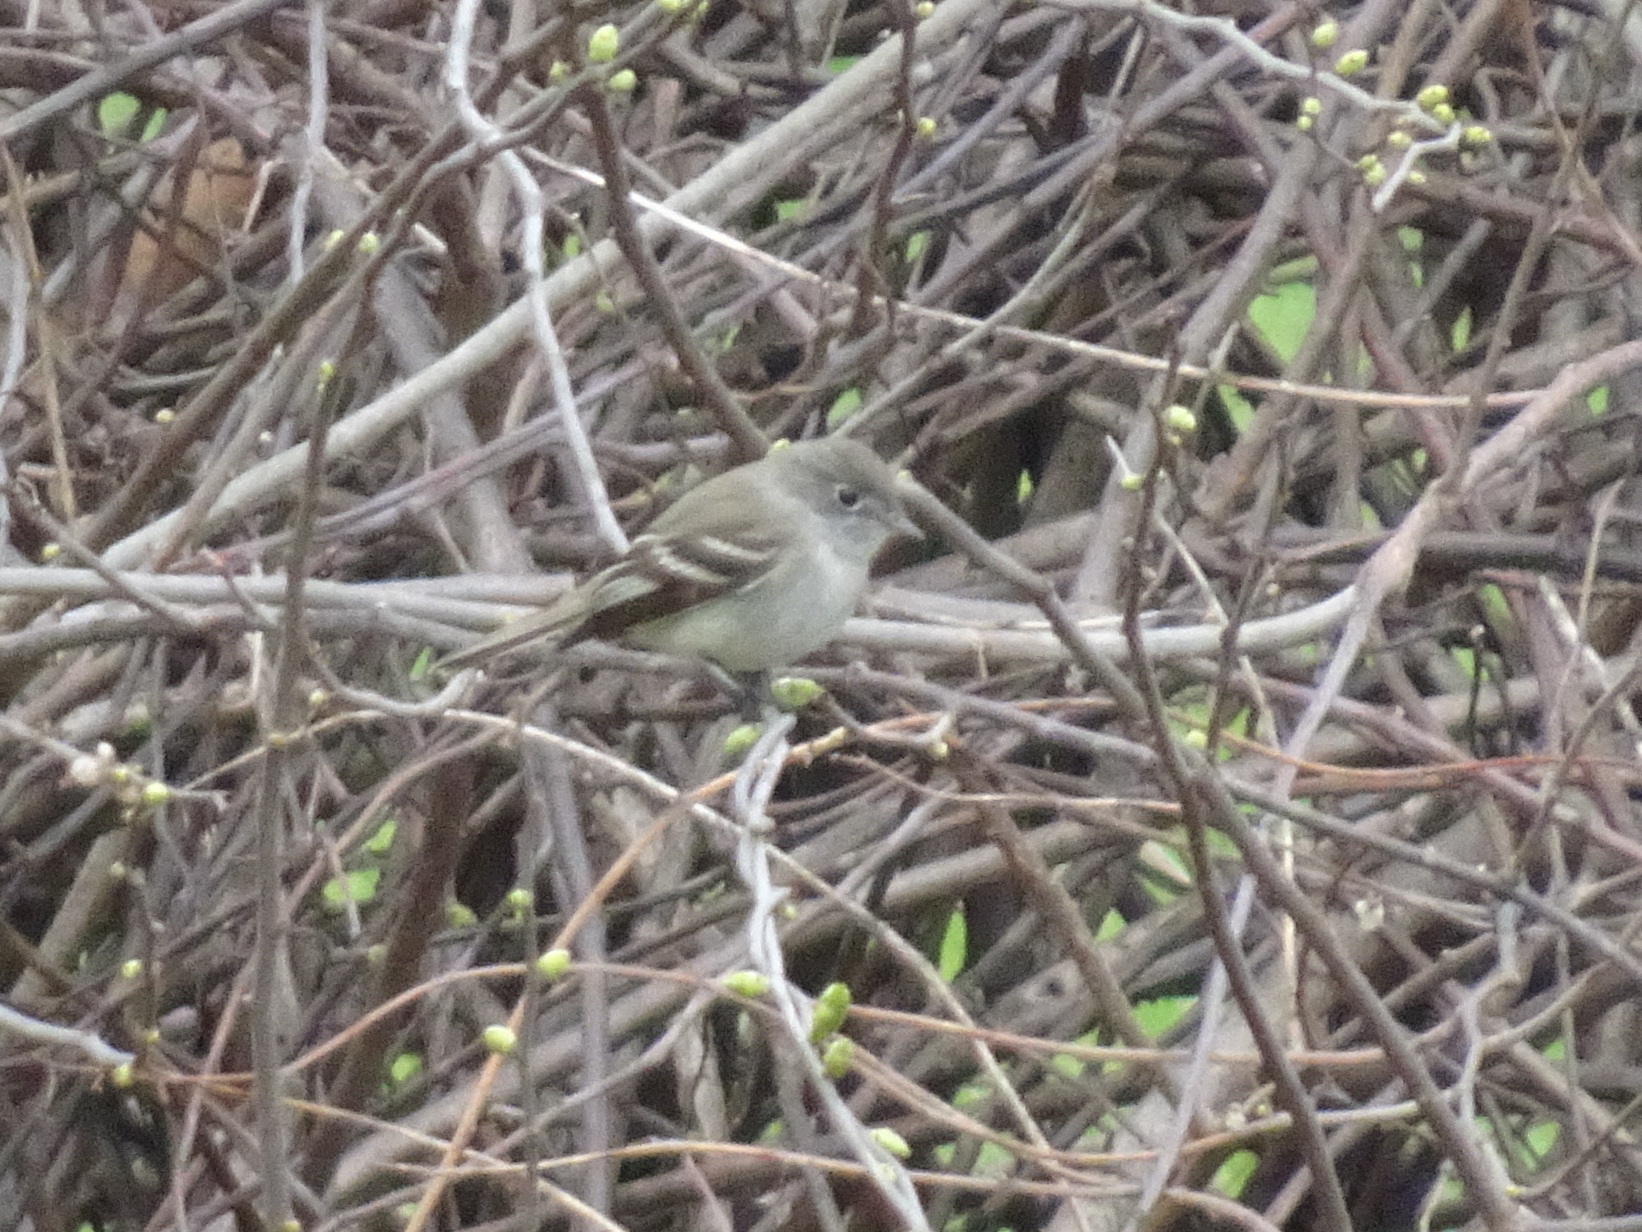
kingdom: Animalia
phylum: Chordata
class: Aves
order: Passeriformes
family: Tyrannidae
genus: Empidonax
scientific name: Empidonax minimus
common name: Least flycatcher
